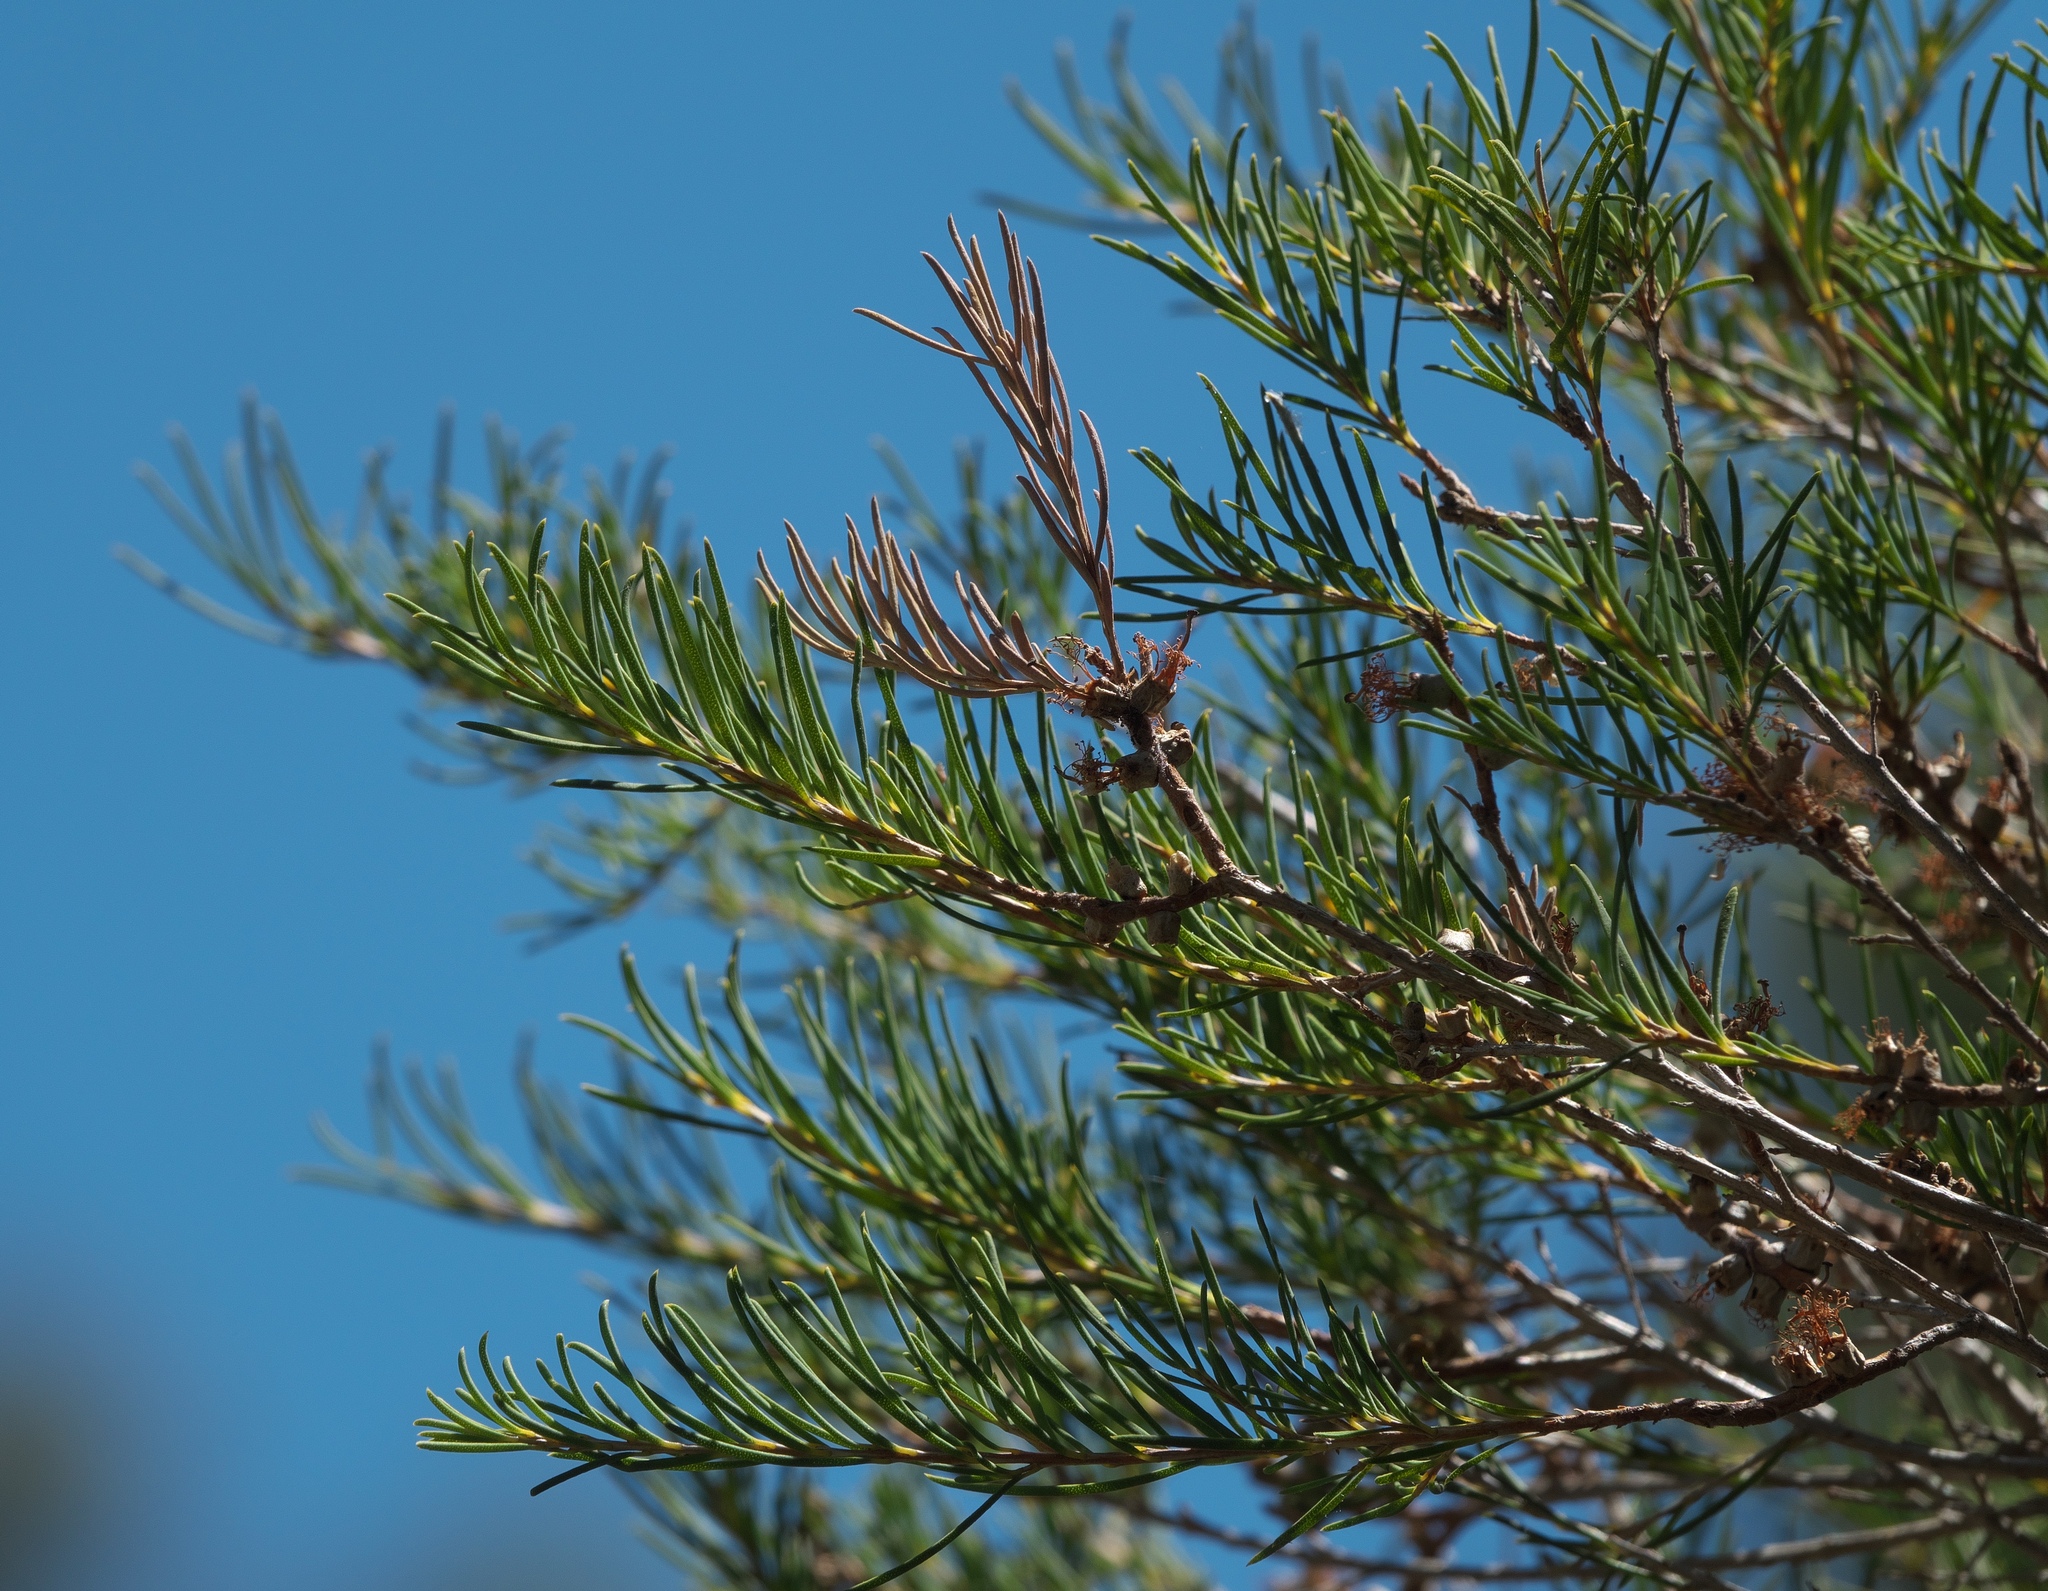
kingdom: Plantae
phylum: Tracheophyta
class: Magnoliopsida
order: Myrtales
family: Myrtaceae
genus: Melaleuca
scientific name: Melaleuca rhaphiophylla
